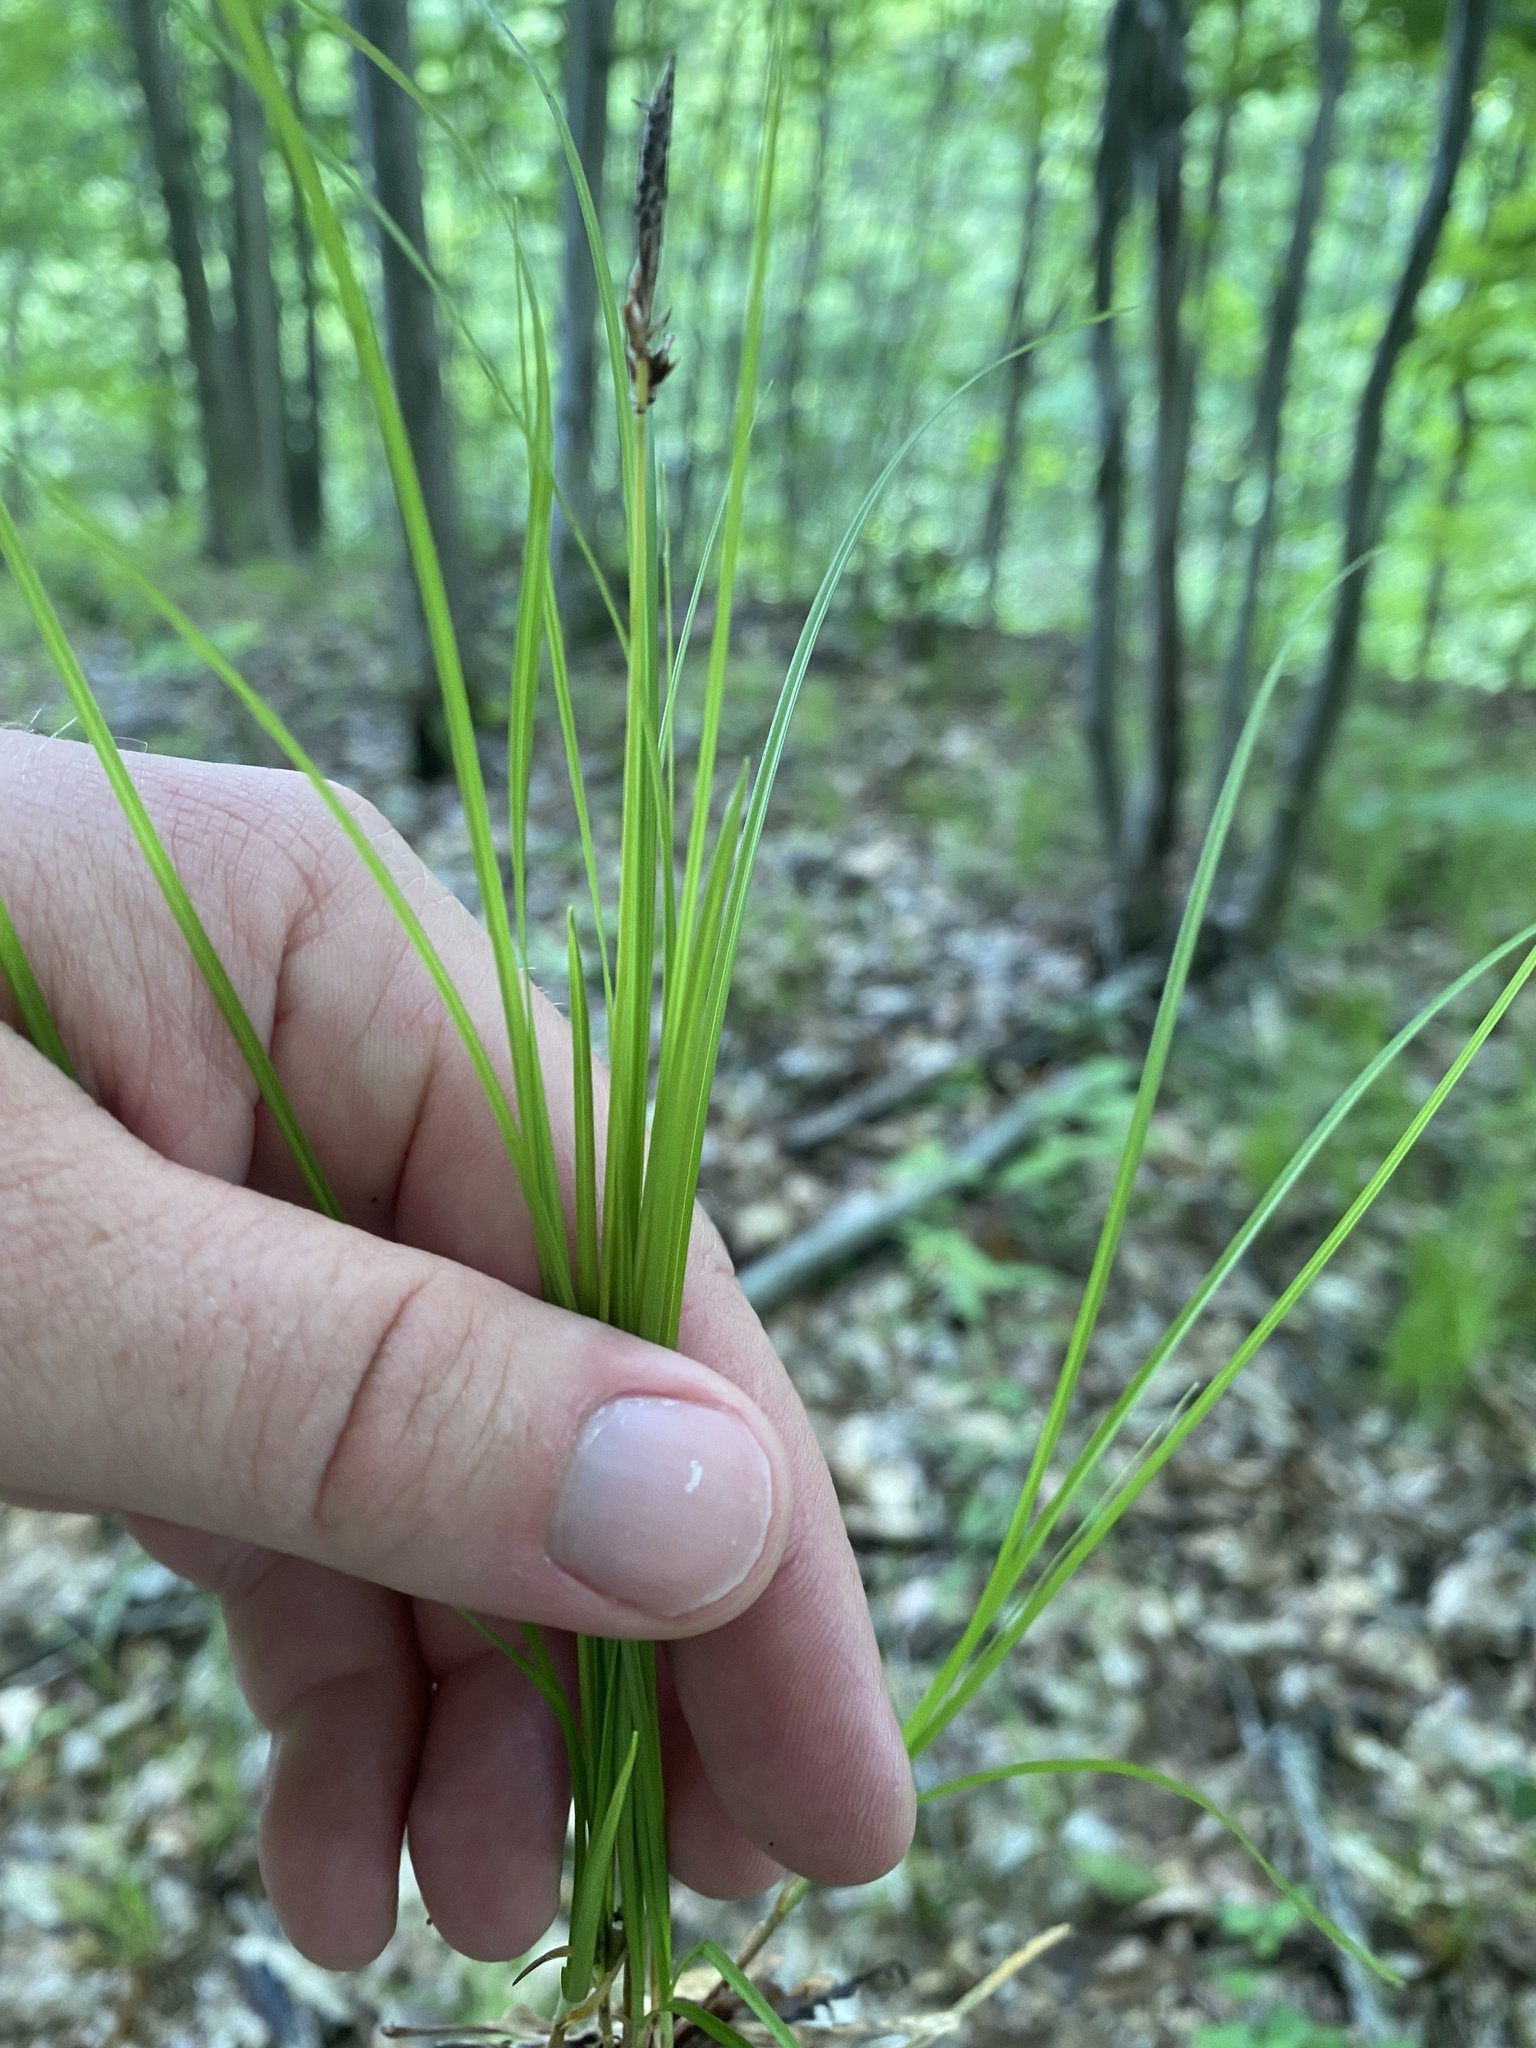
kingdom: Plantae
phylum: Tracheophyta
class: Liliopsida
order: Poales
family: Cyperaceae
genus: Carex
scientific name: Carex pensylvanica
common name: Common oak sedge
